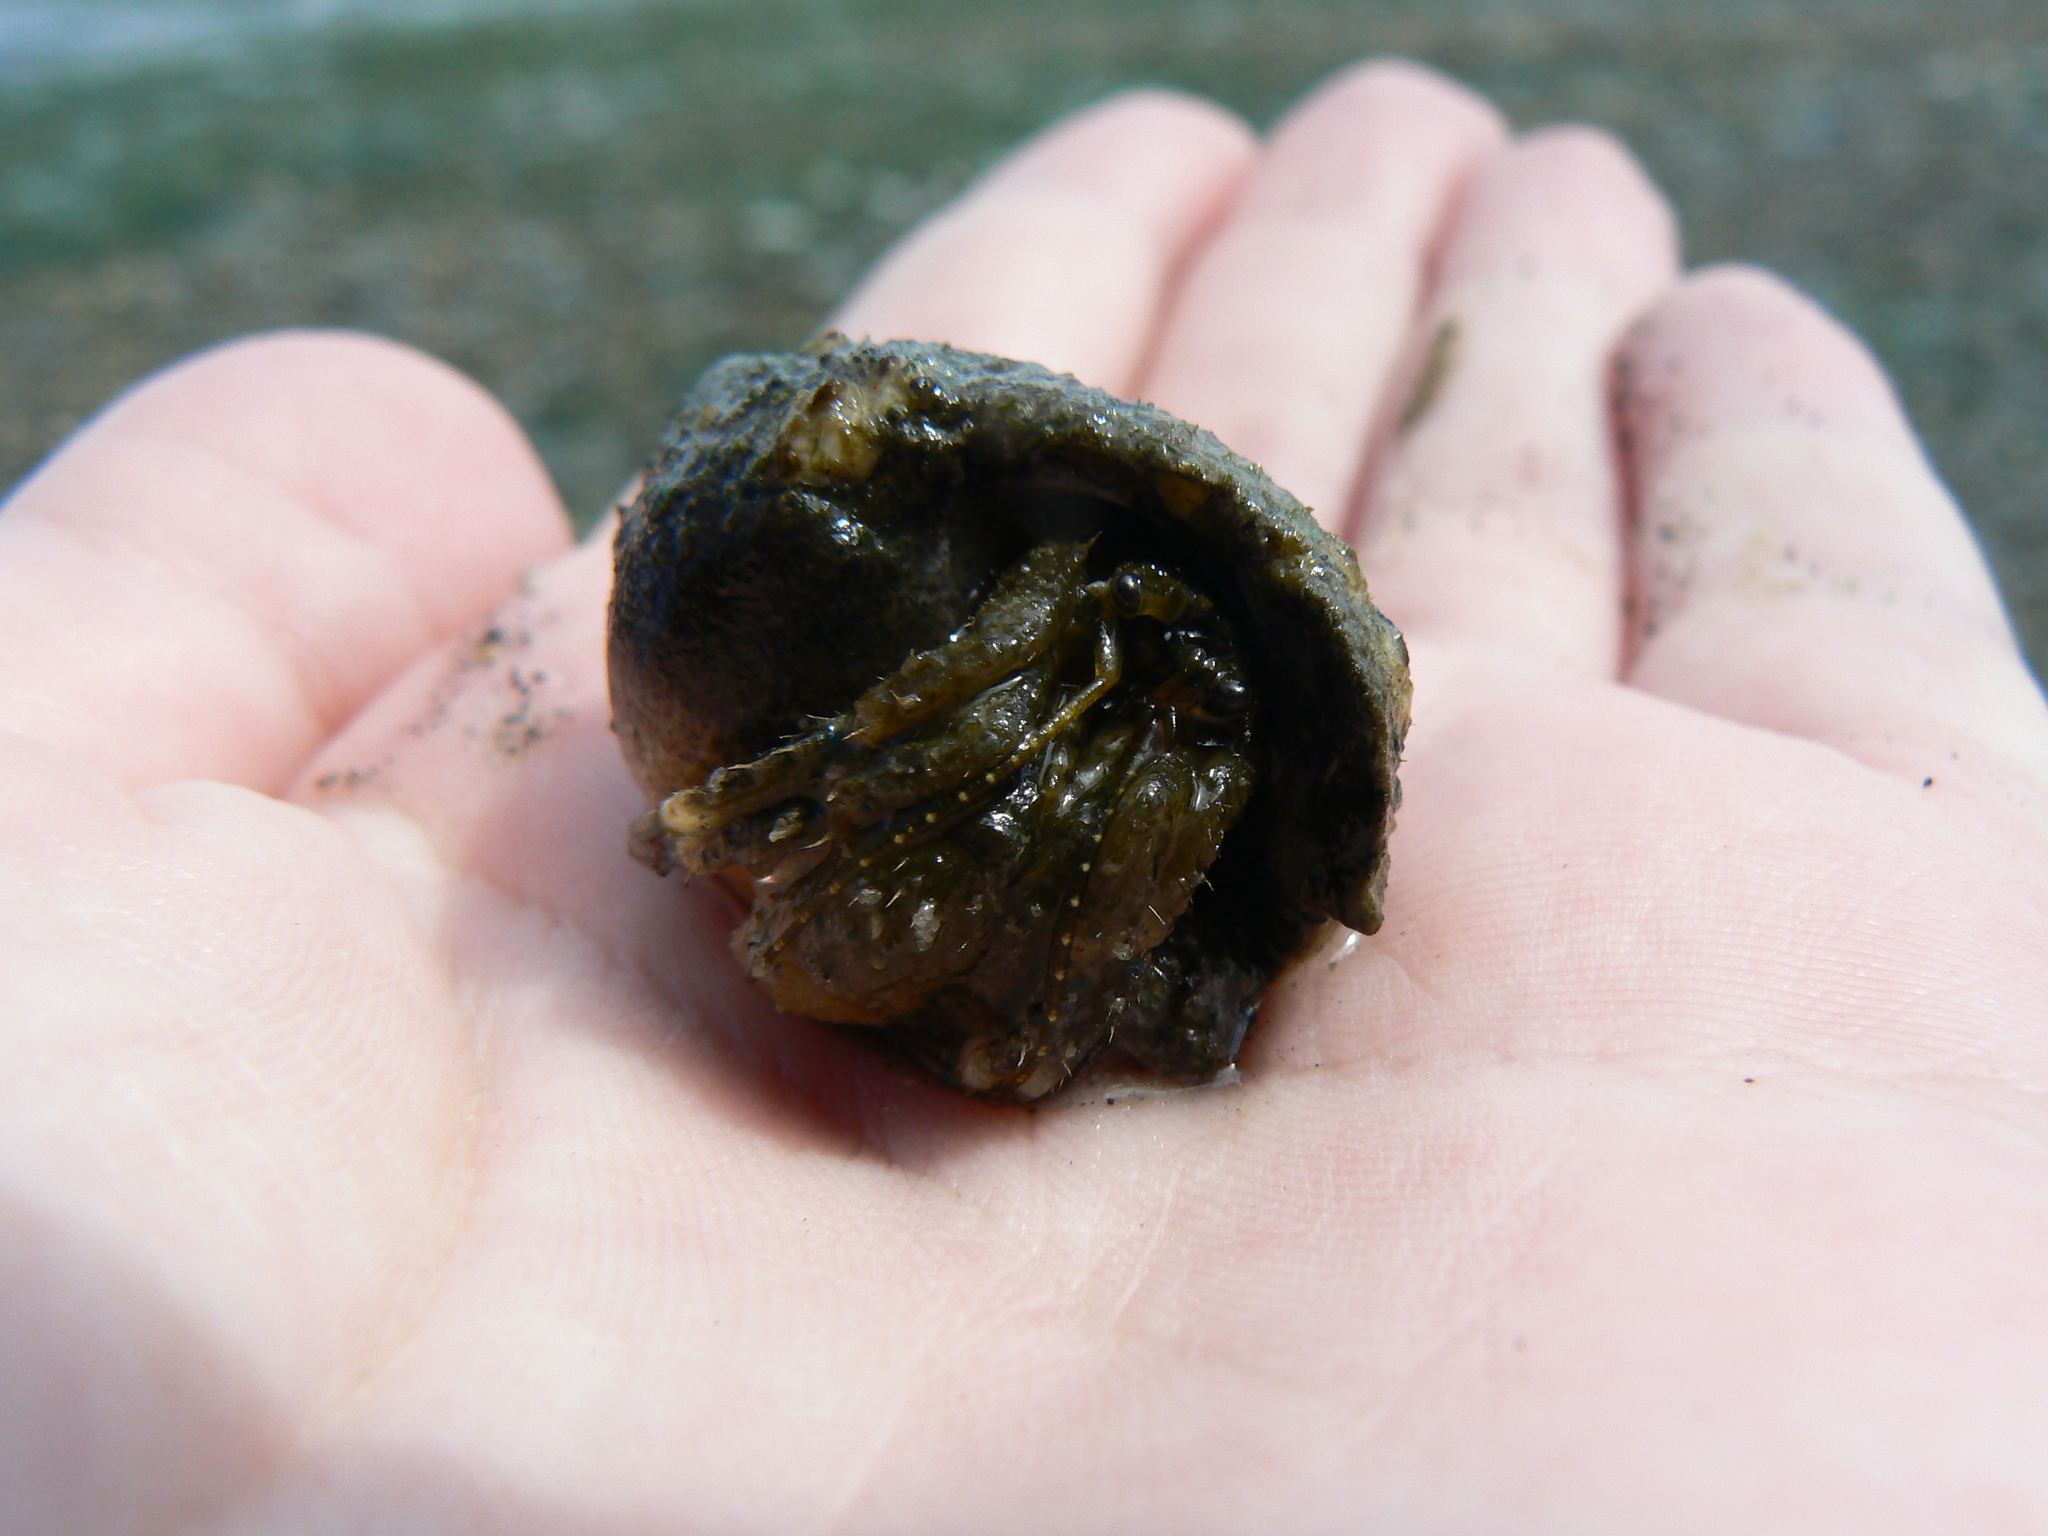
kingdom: Animalia
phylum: Arthropoda
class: Malacostraca
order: Decapoda
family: Paguridae
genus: Pagurus
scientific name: Pagurus hirsutiusculus
